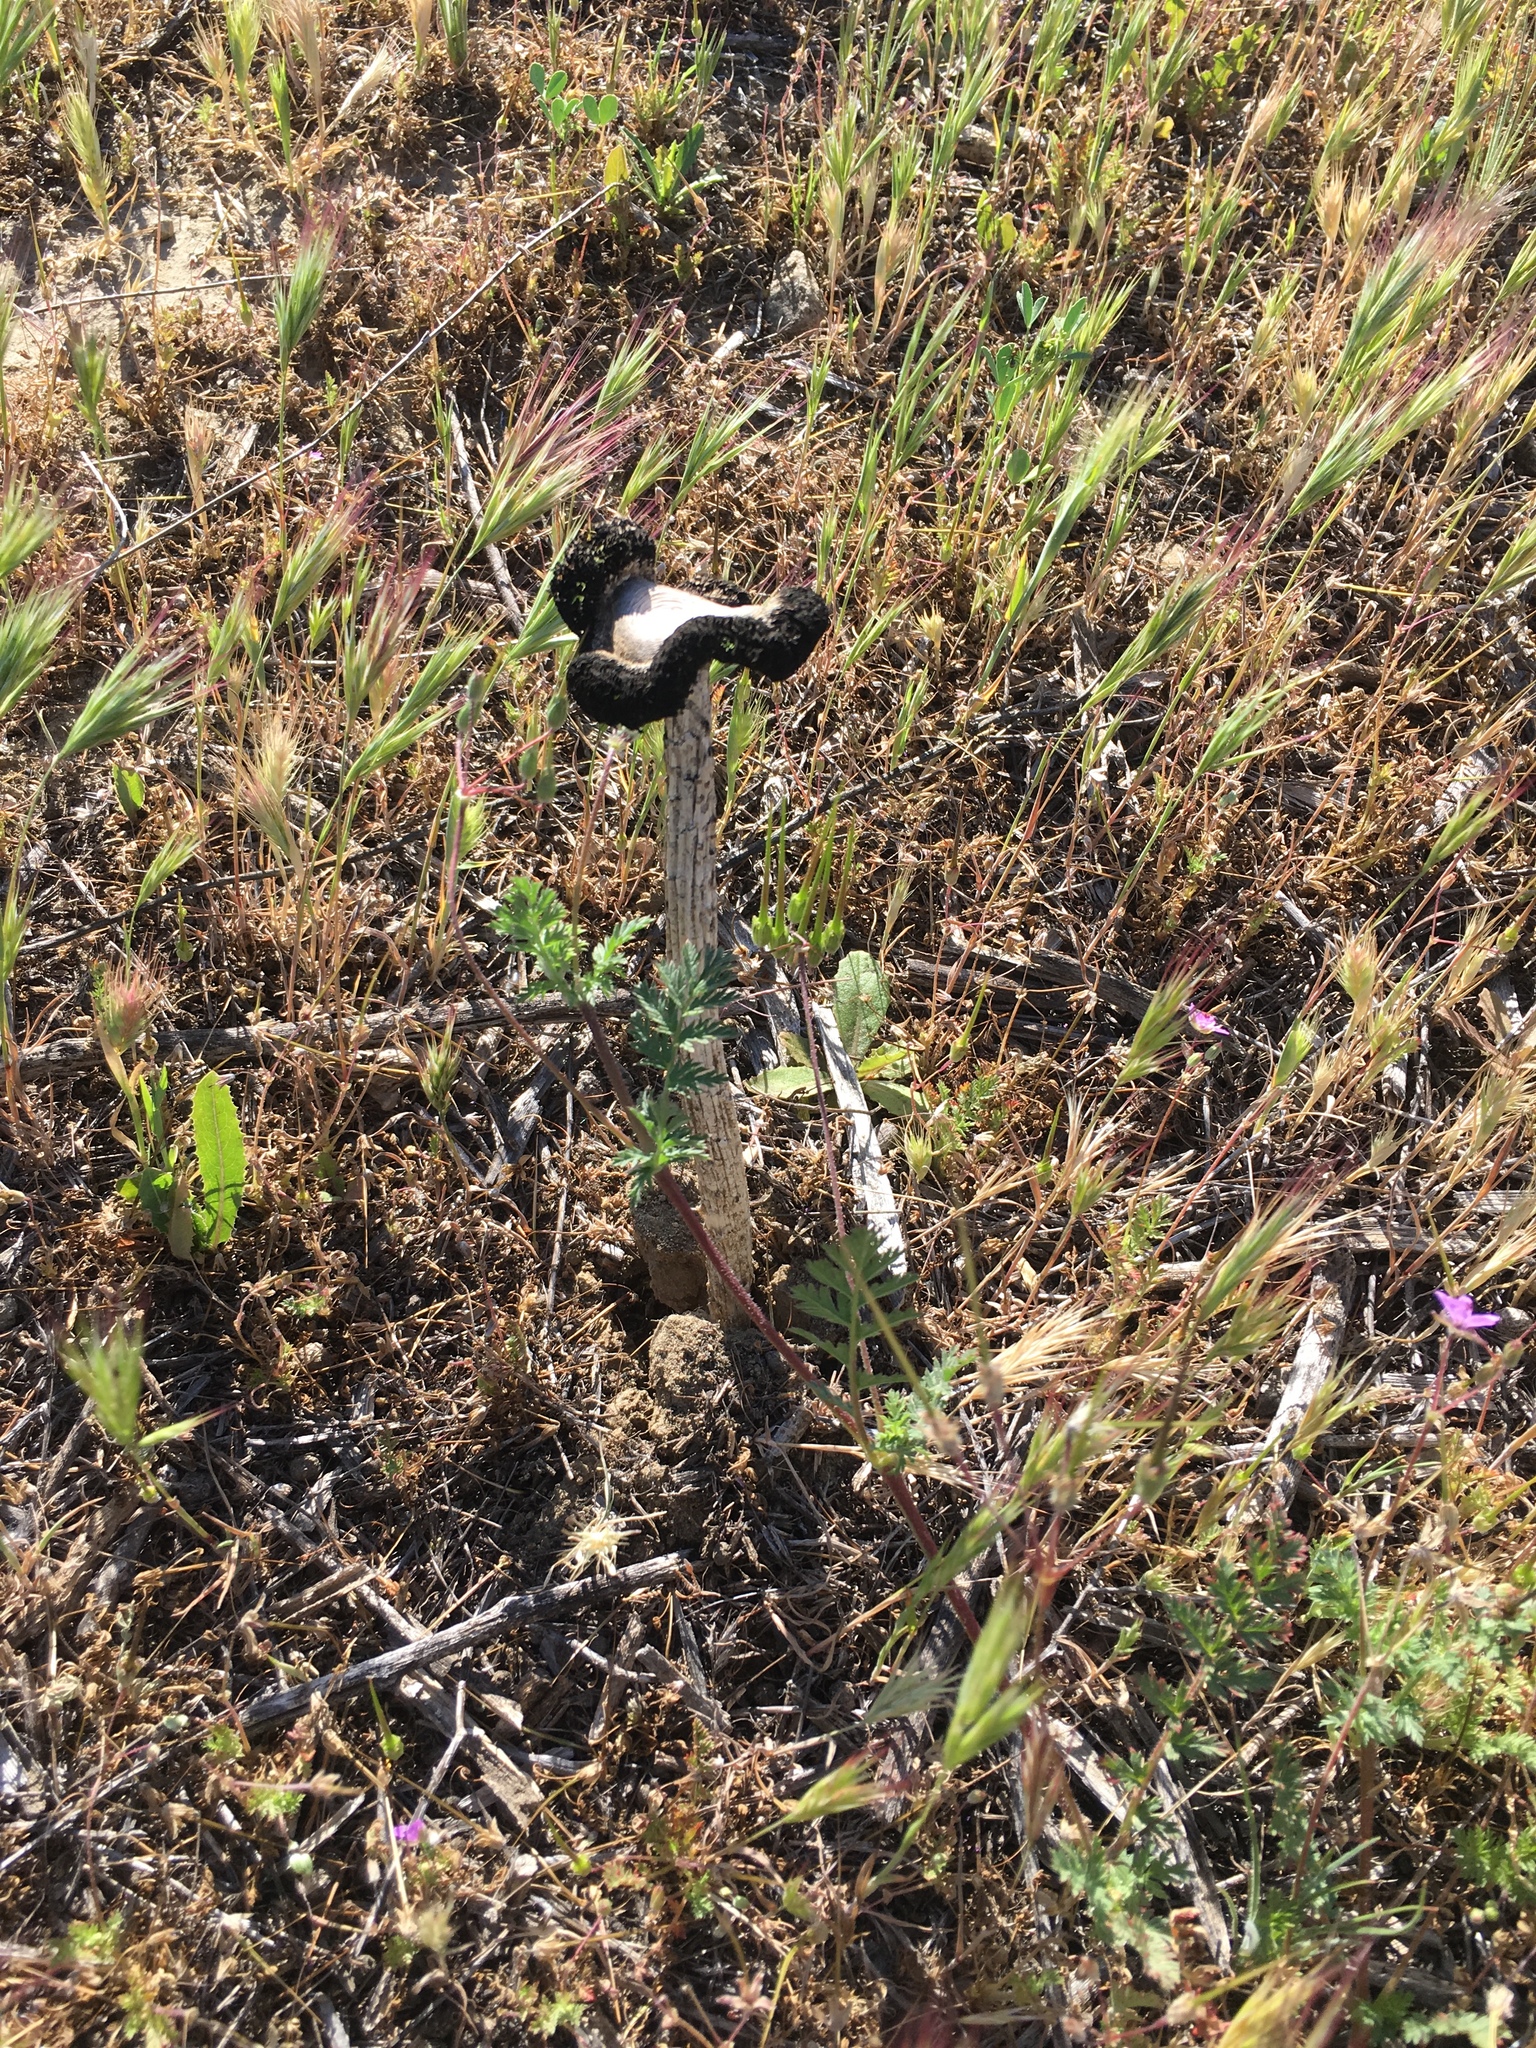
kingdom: Fungi
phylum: Basidiomycota
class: Agaricomycetes
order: Agaricales
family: Agaricaceae
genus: Montagnea
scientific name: Montagnea arenaria
